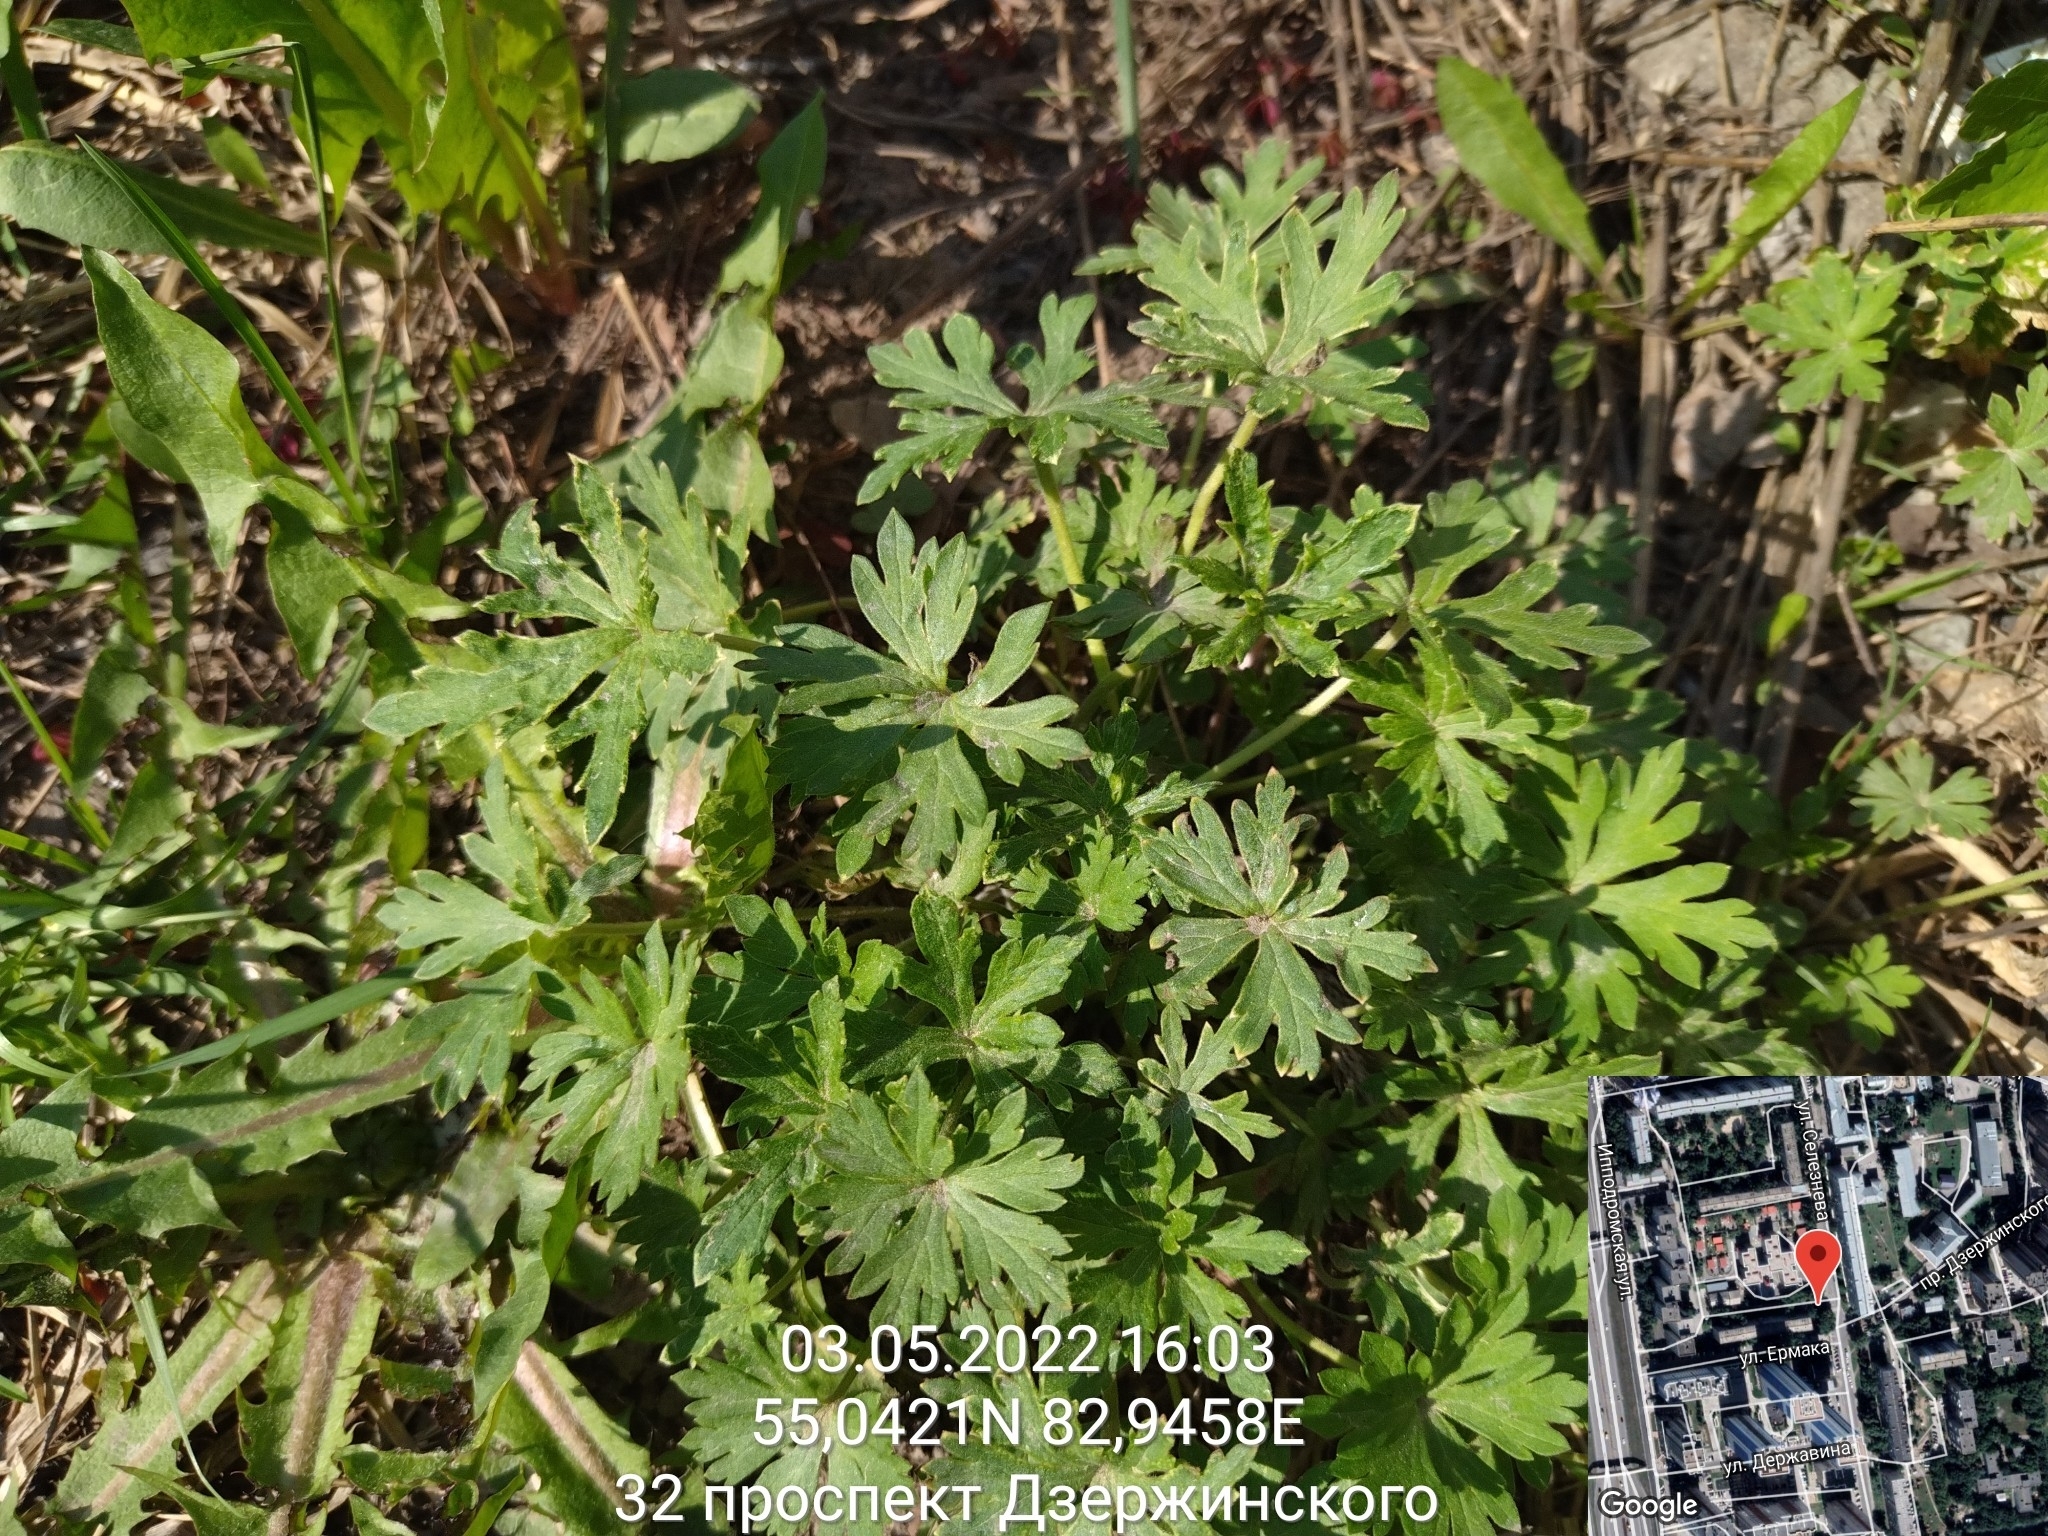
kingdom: Plantae
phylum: Tracheophyta
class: Magnoliopsida
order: Geraniales
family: Geraniaceae
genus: Geranium
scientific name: Geranium sibiricum
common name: Siberian crane's-bill
